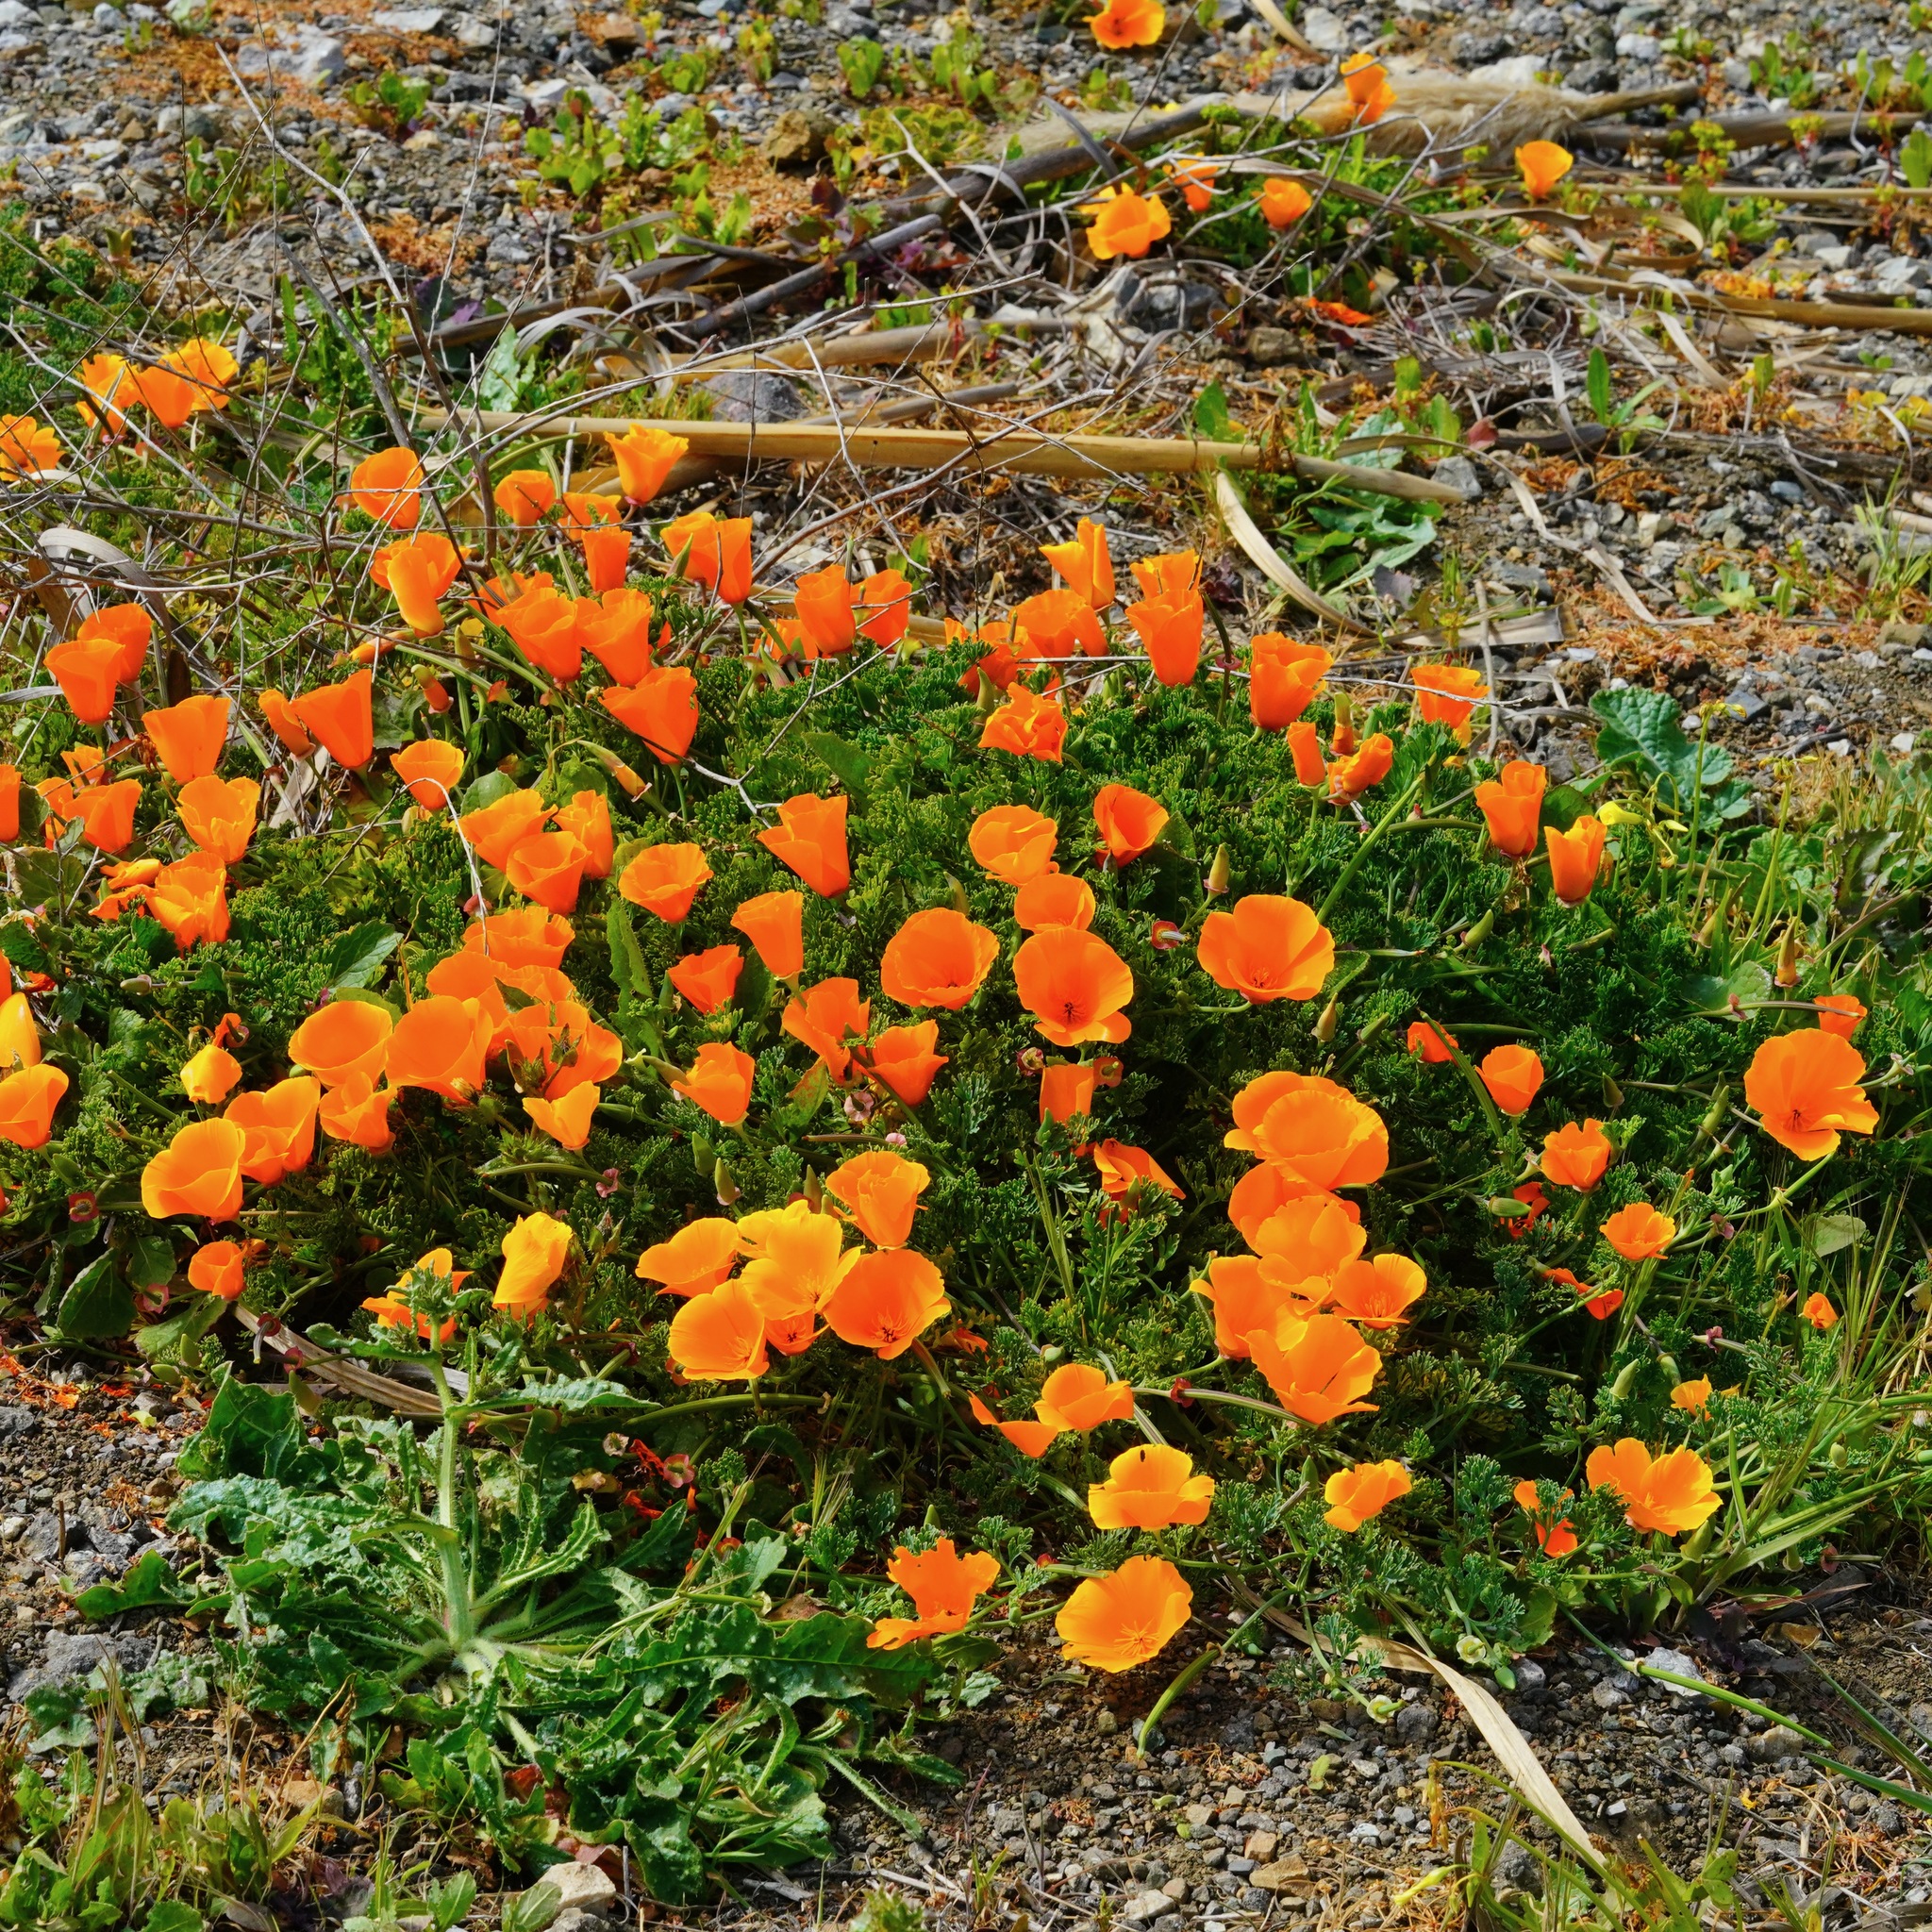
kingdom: Plantae
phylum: Tracheophyta
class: Magnoliopsida
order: Ranunculales
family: Papaveraceae
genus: Eschscholzia
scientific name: Eschscholzia californica
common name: California poppy
